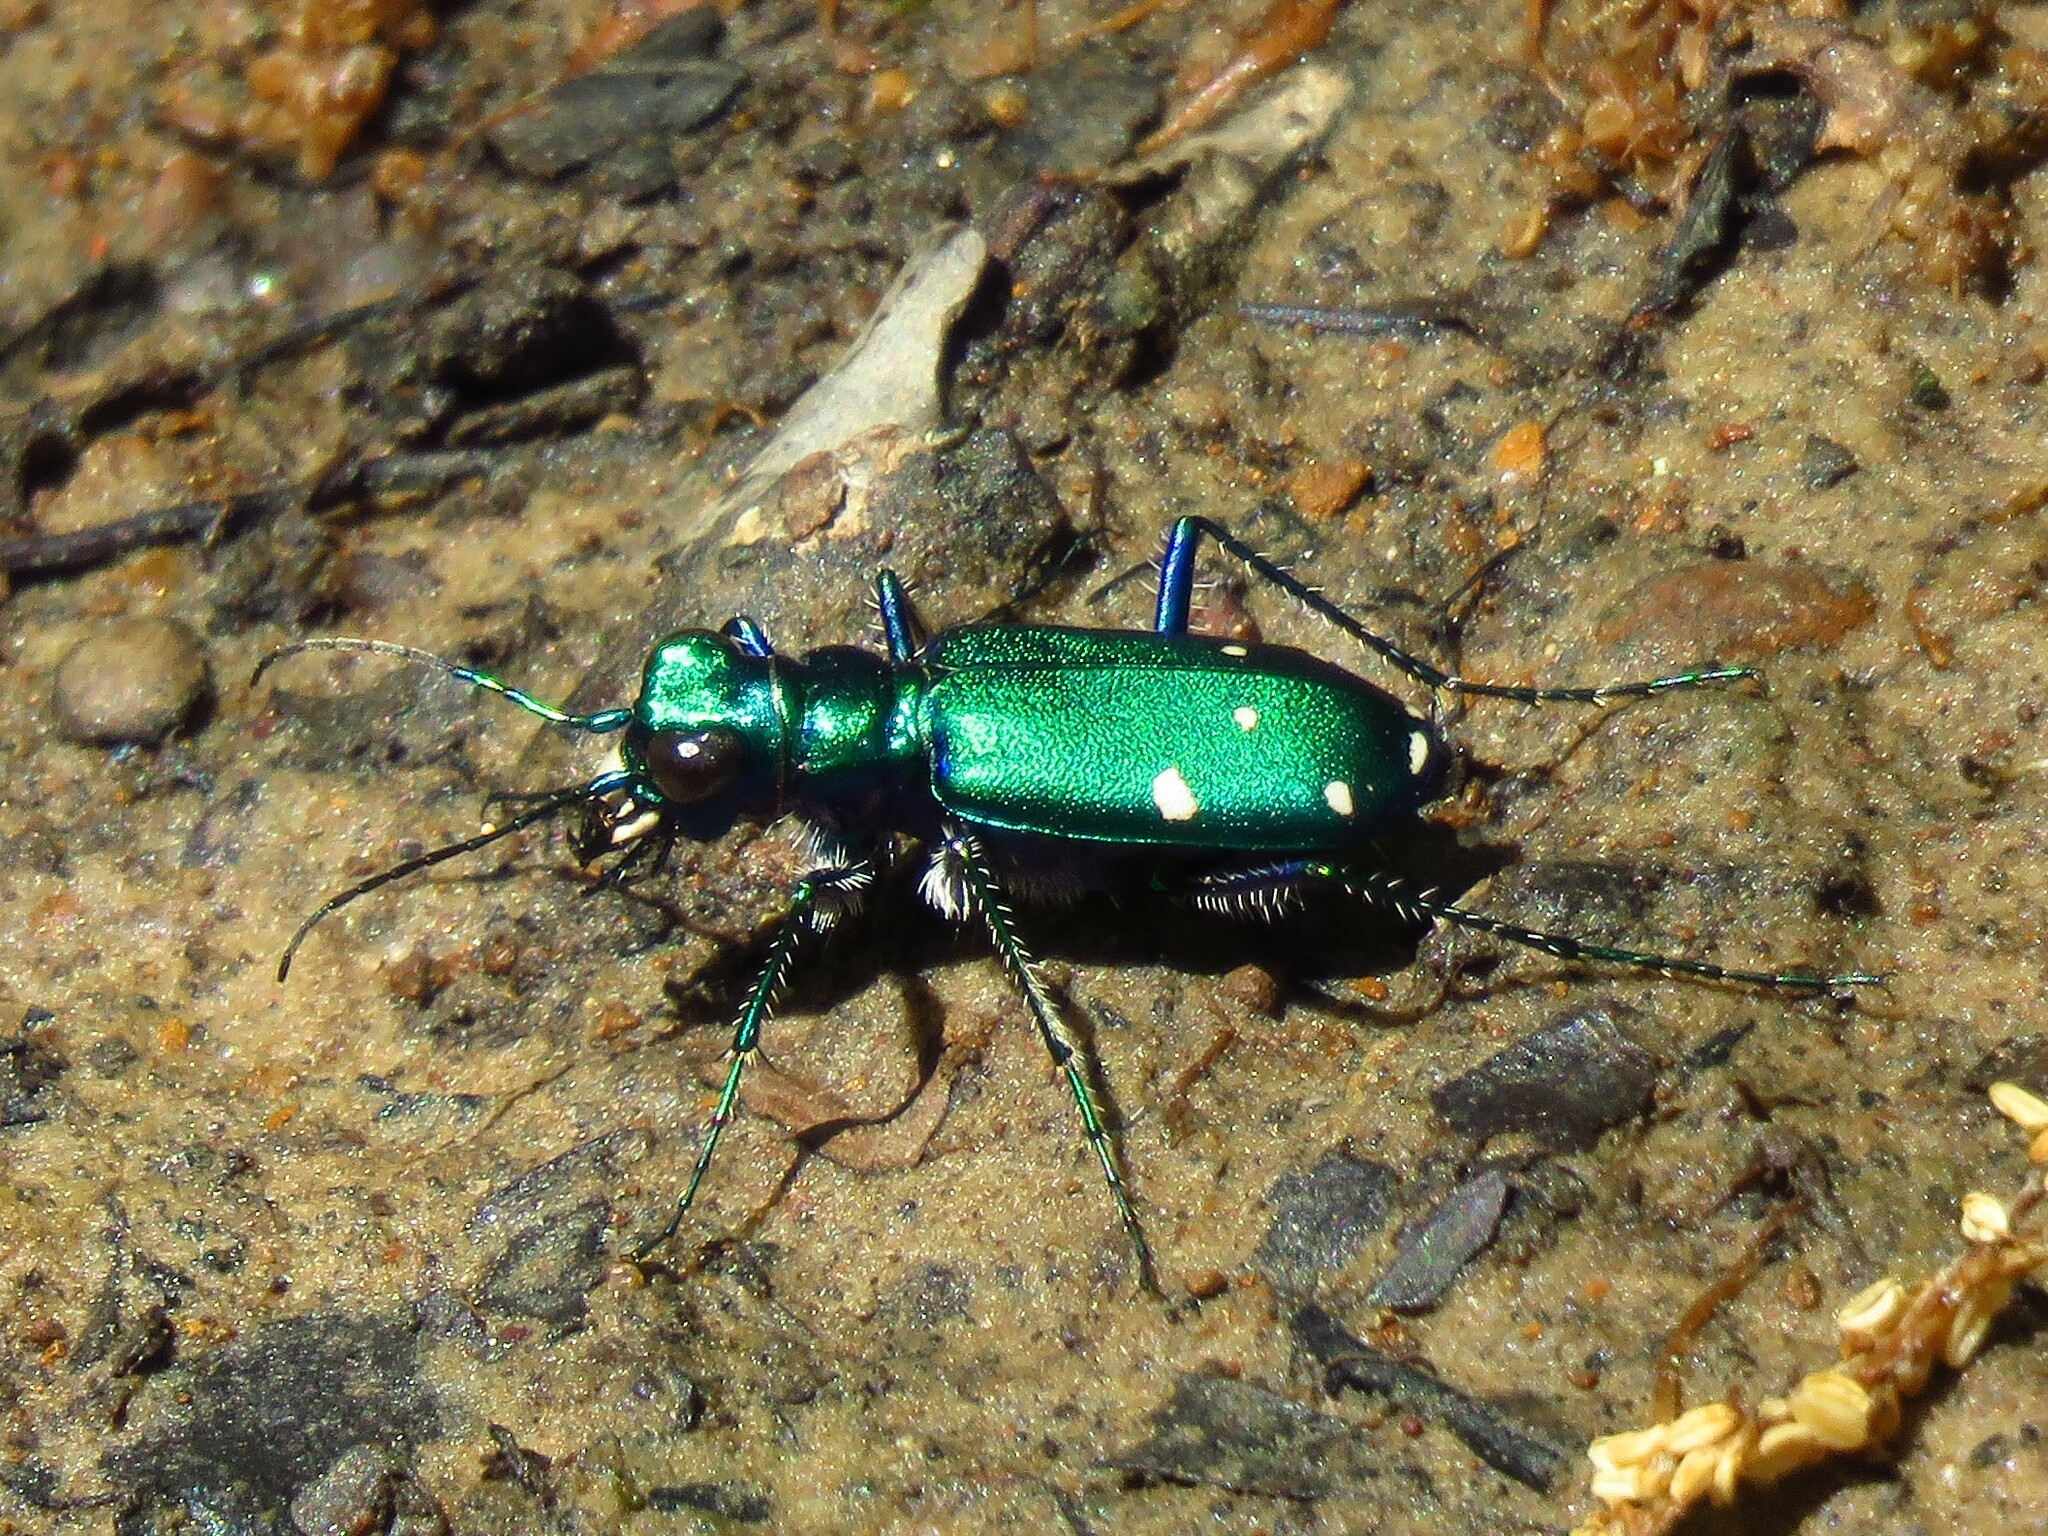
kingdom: Animalia
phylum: Arthropoda
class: Insecta
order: Coleoptera
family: Carabidae
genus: Cicindela
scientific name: Cicindela sexguttata
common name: Six-spotted tiger beetle
